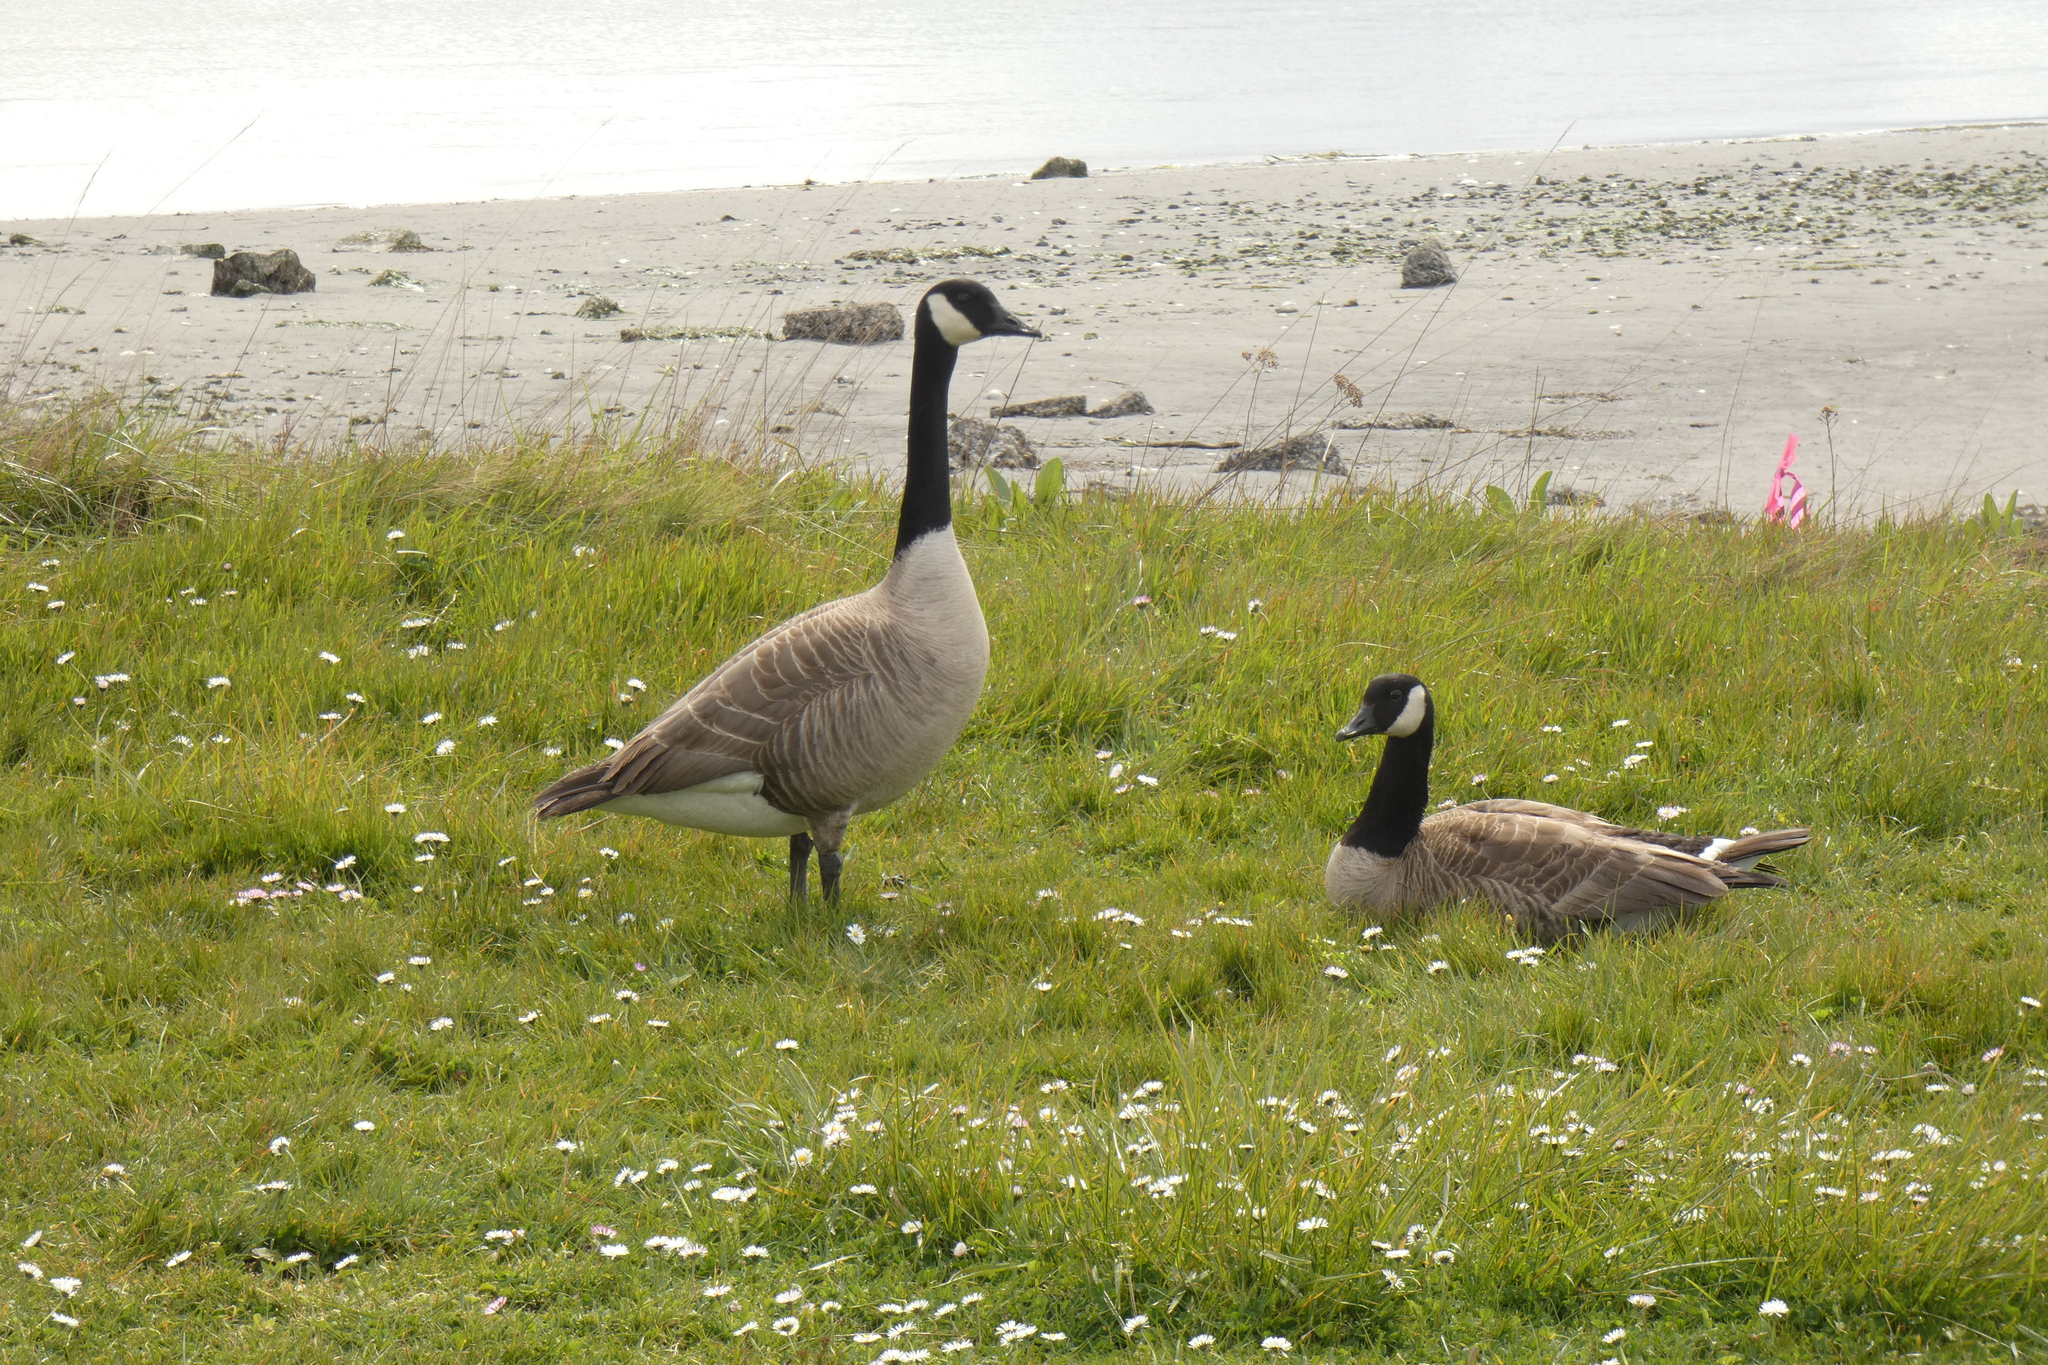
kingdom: Animalia
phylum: Chordata
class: Aves
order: Anseriformes
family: Anatidae
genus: Branta
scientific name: Branta canadensis
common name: Canada goose
